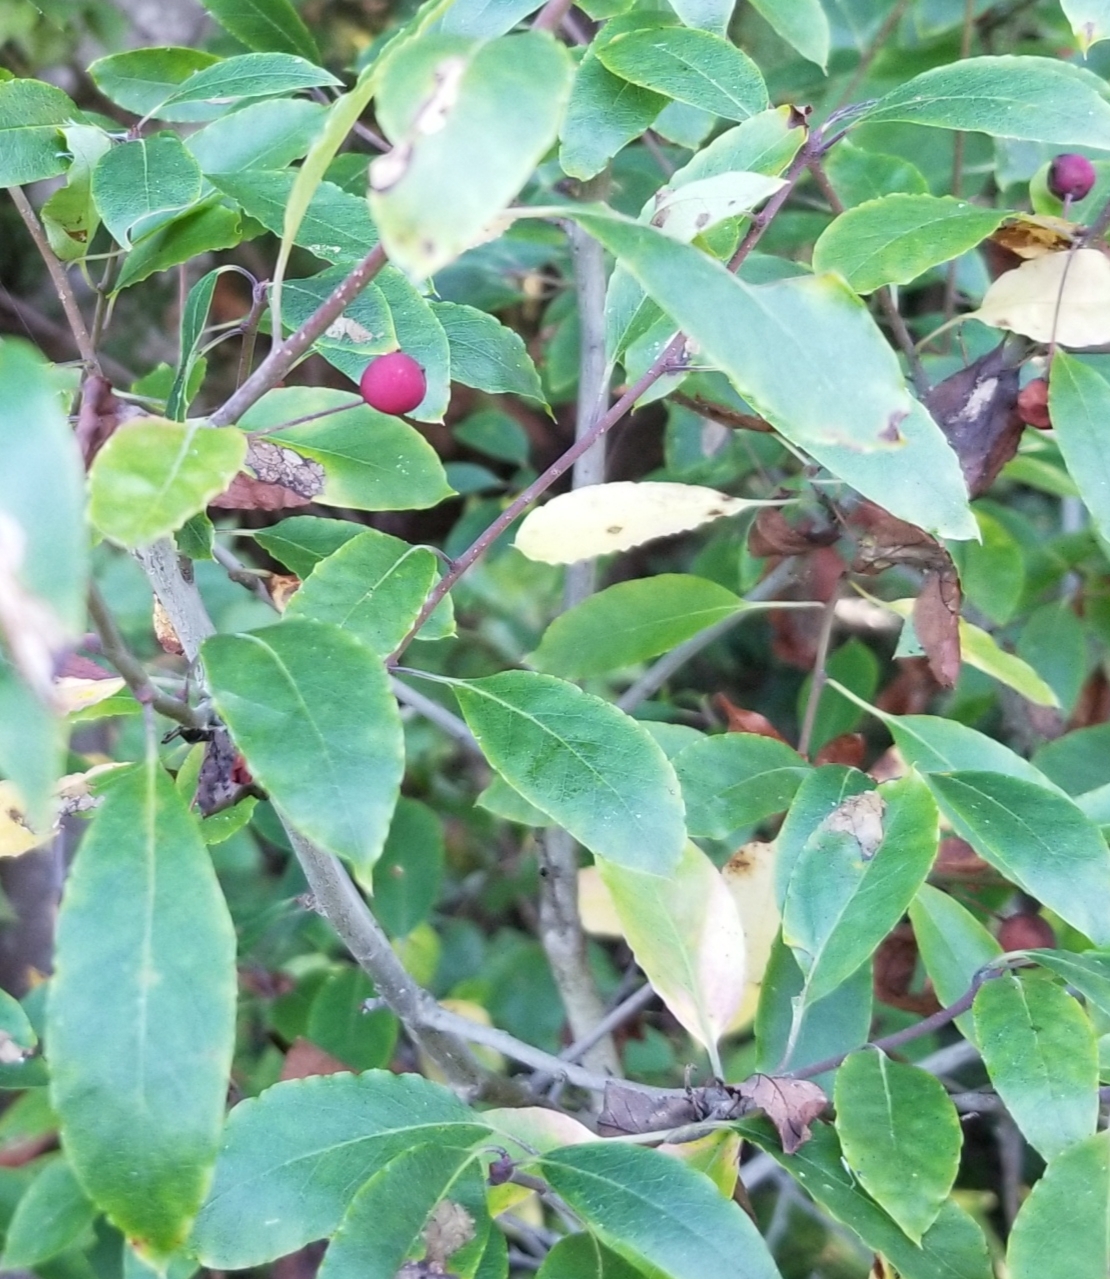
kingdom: Plantae
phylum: Tracheophyta
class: Magnoliopsida
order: Aquifoliales
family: Aquifoliaceae
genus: Ilex
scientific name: Ilex mucronata
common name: Catberry
